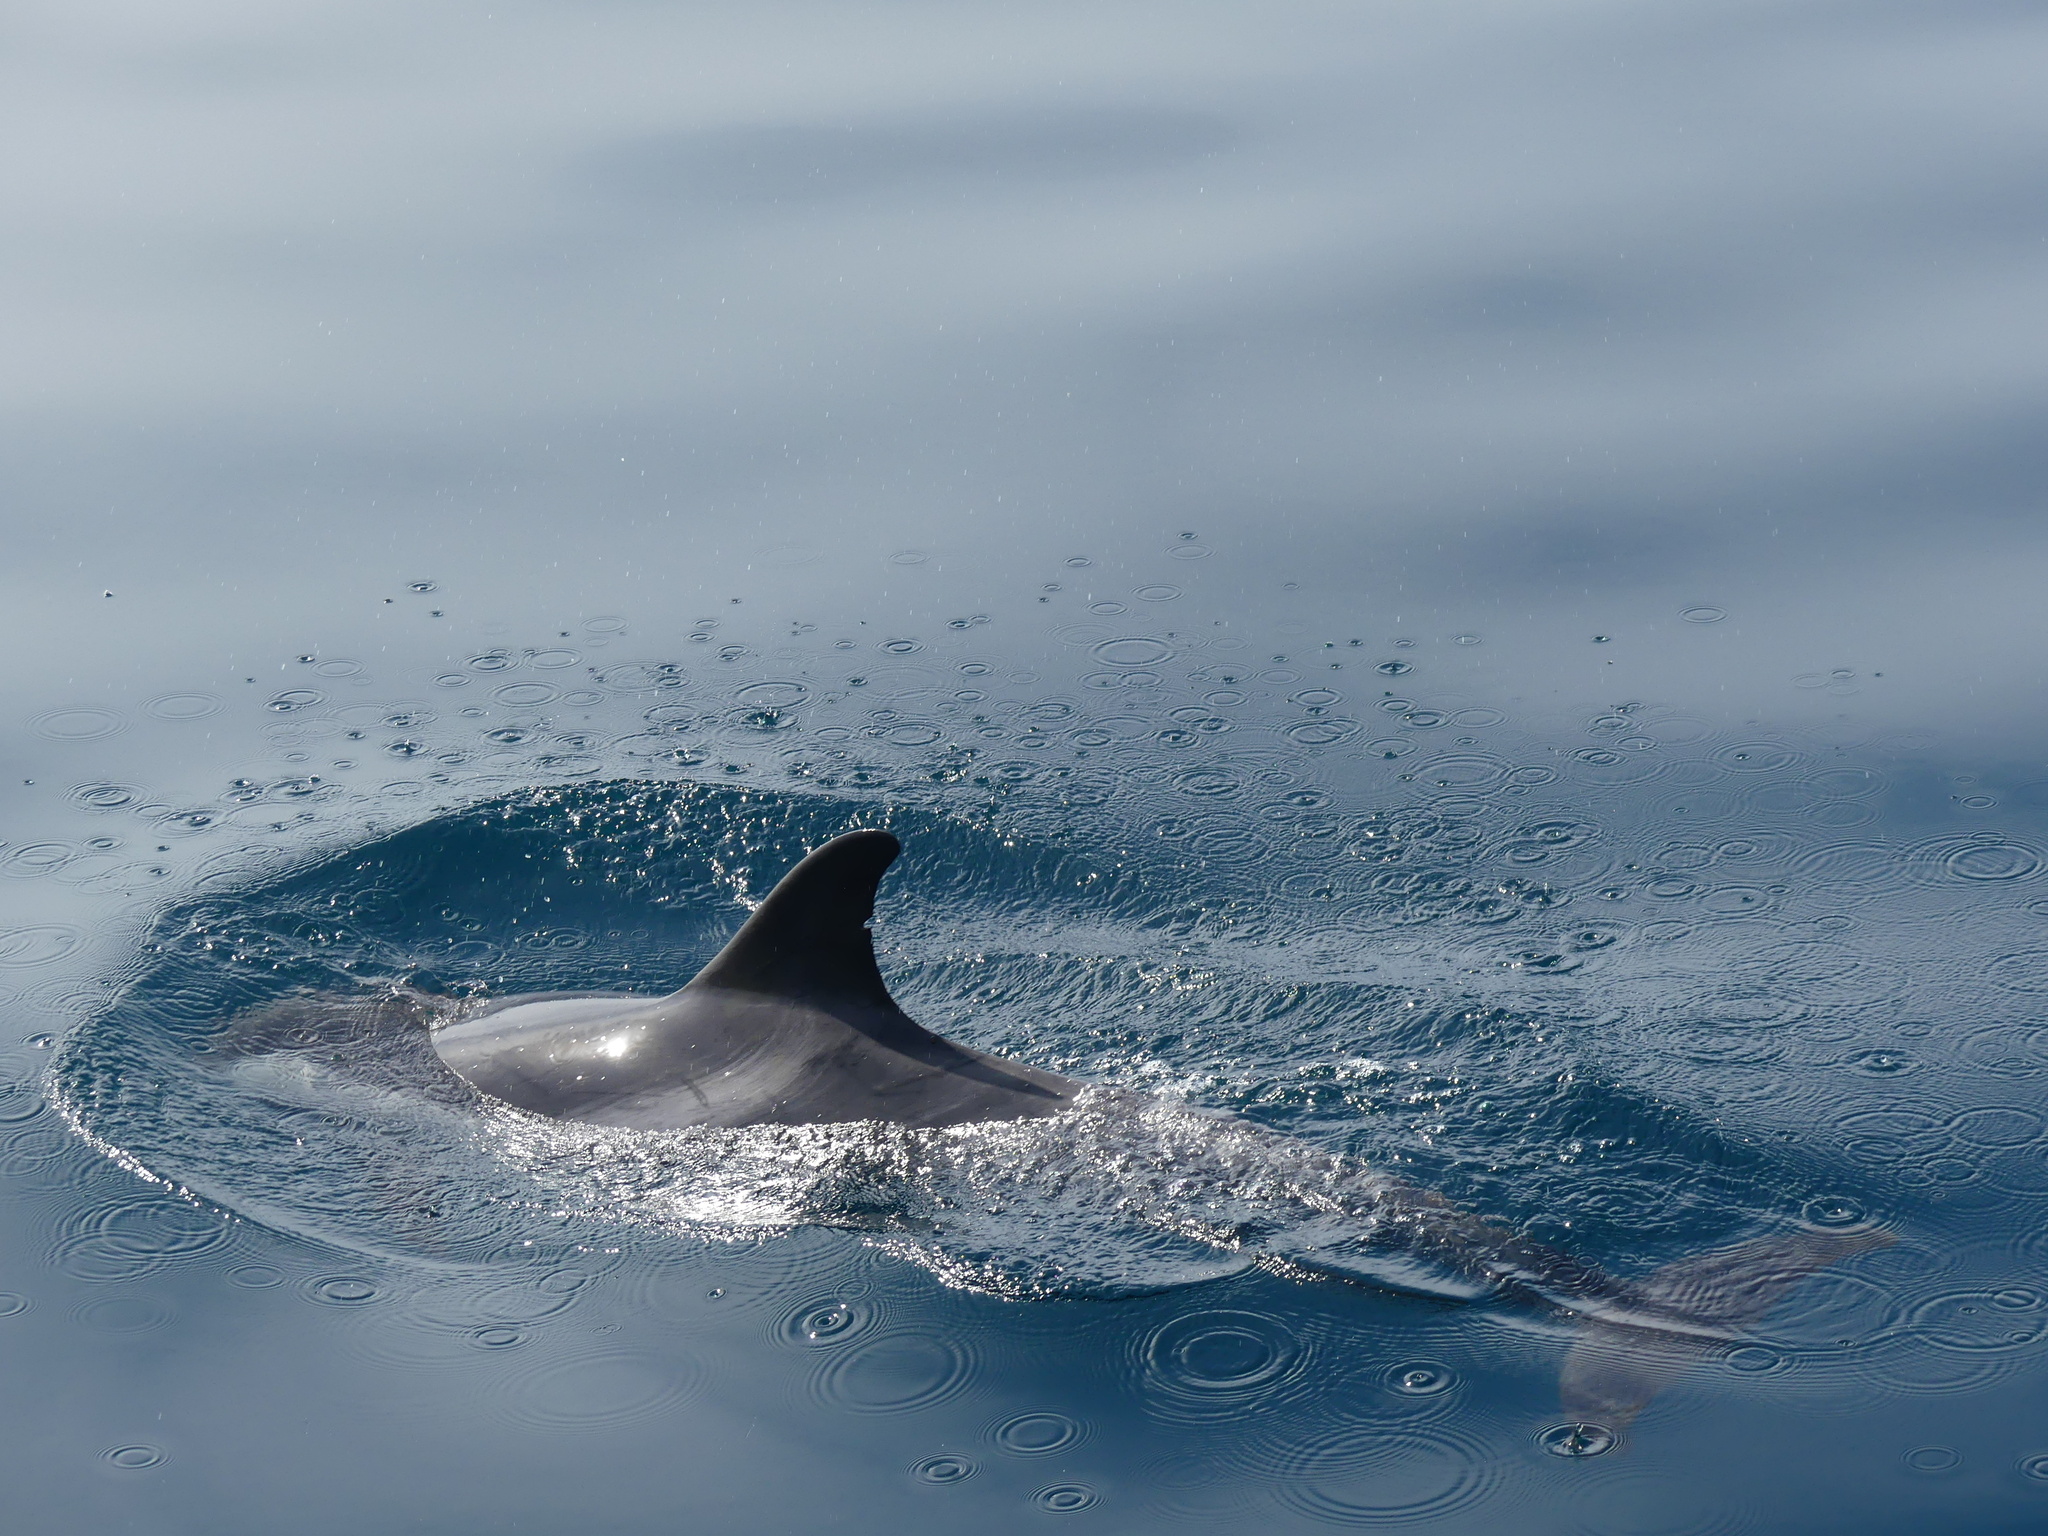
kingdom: Animalia
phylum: Chordata
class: Mammalia
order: Cetacea
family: Delphinidae
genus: Stenella
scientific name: Stenella coeruleoalba
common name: Striped dolphin
